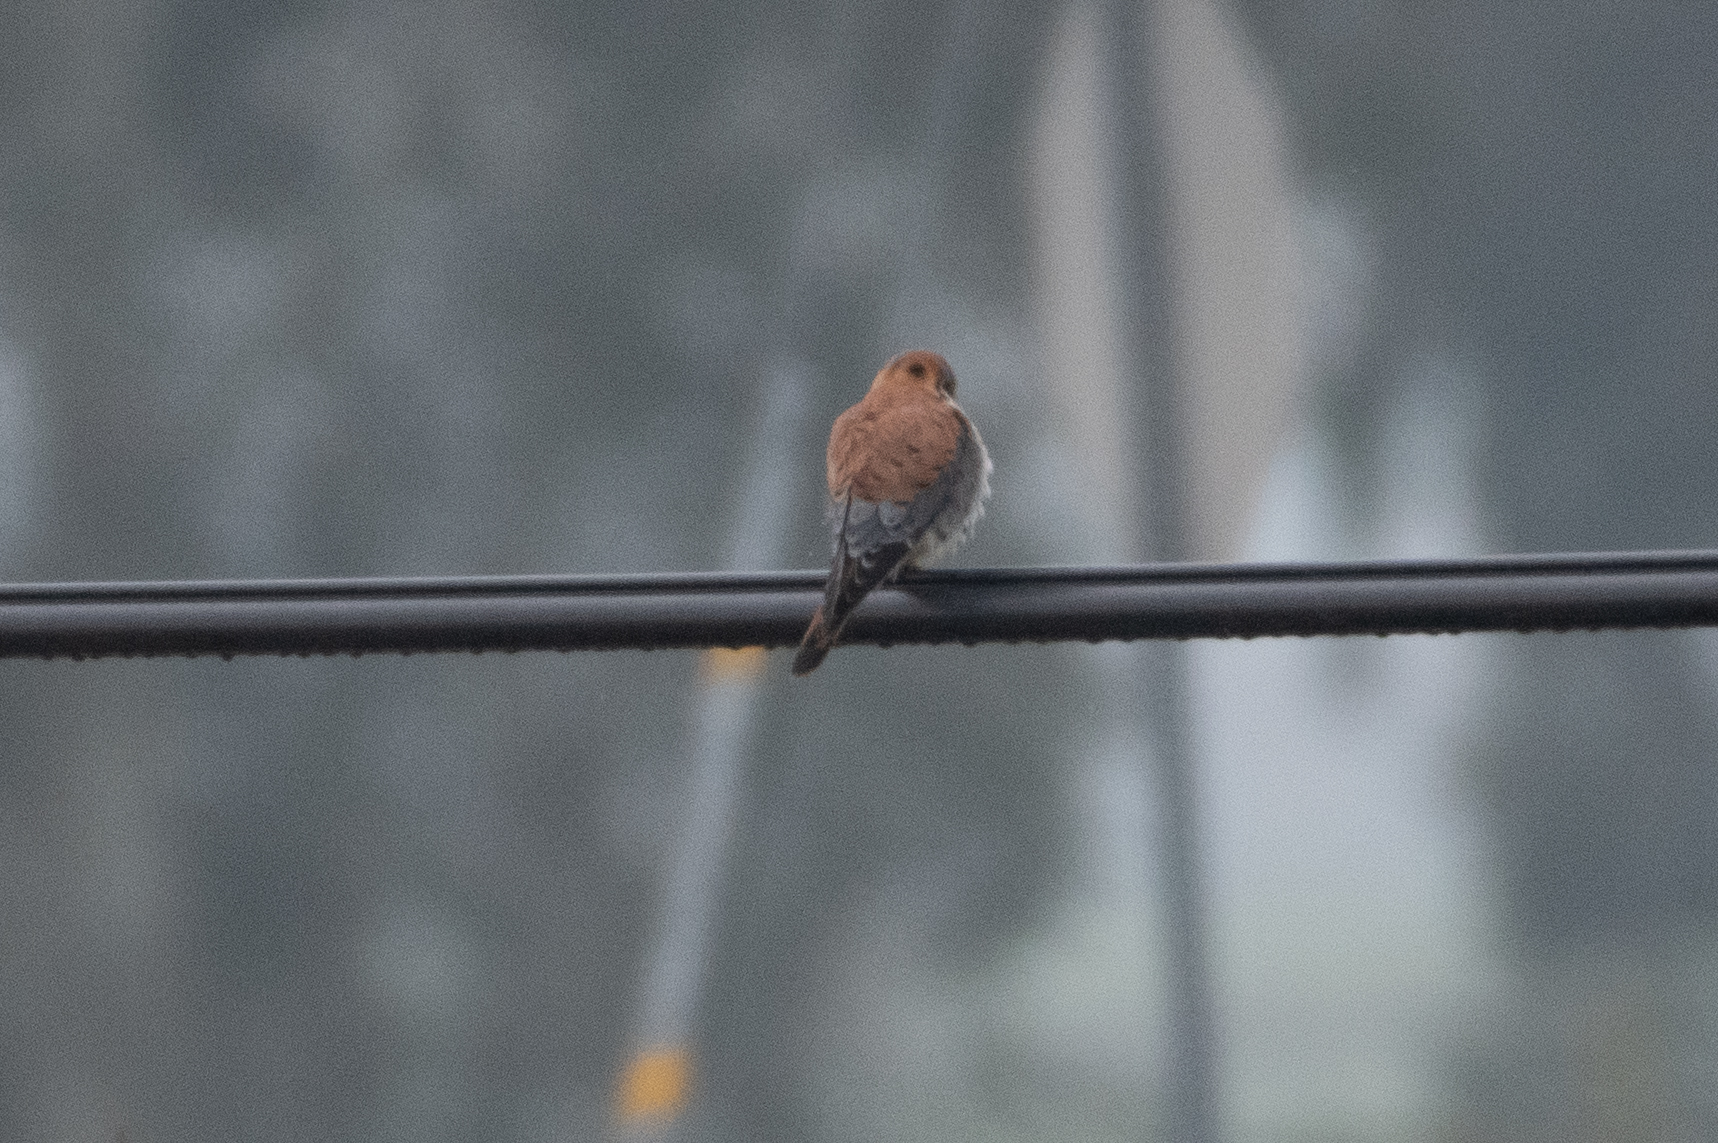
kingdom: Animalia
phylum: Chordata
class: Aves
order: Falconiformes
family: Falconidae
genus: Falco
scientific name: Falco sparverius
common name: American kestrel
